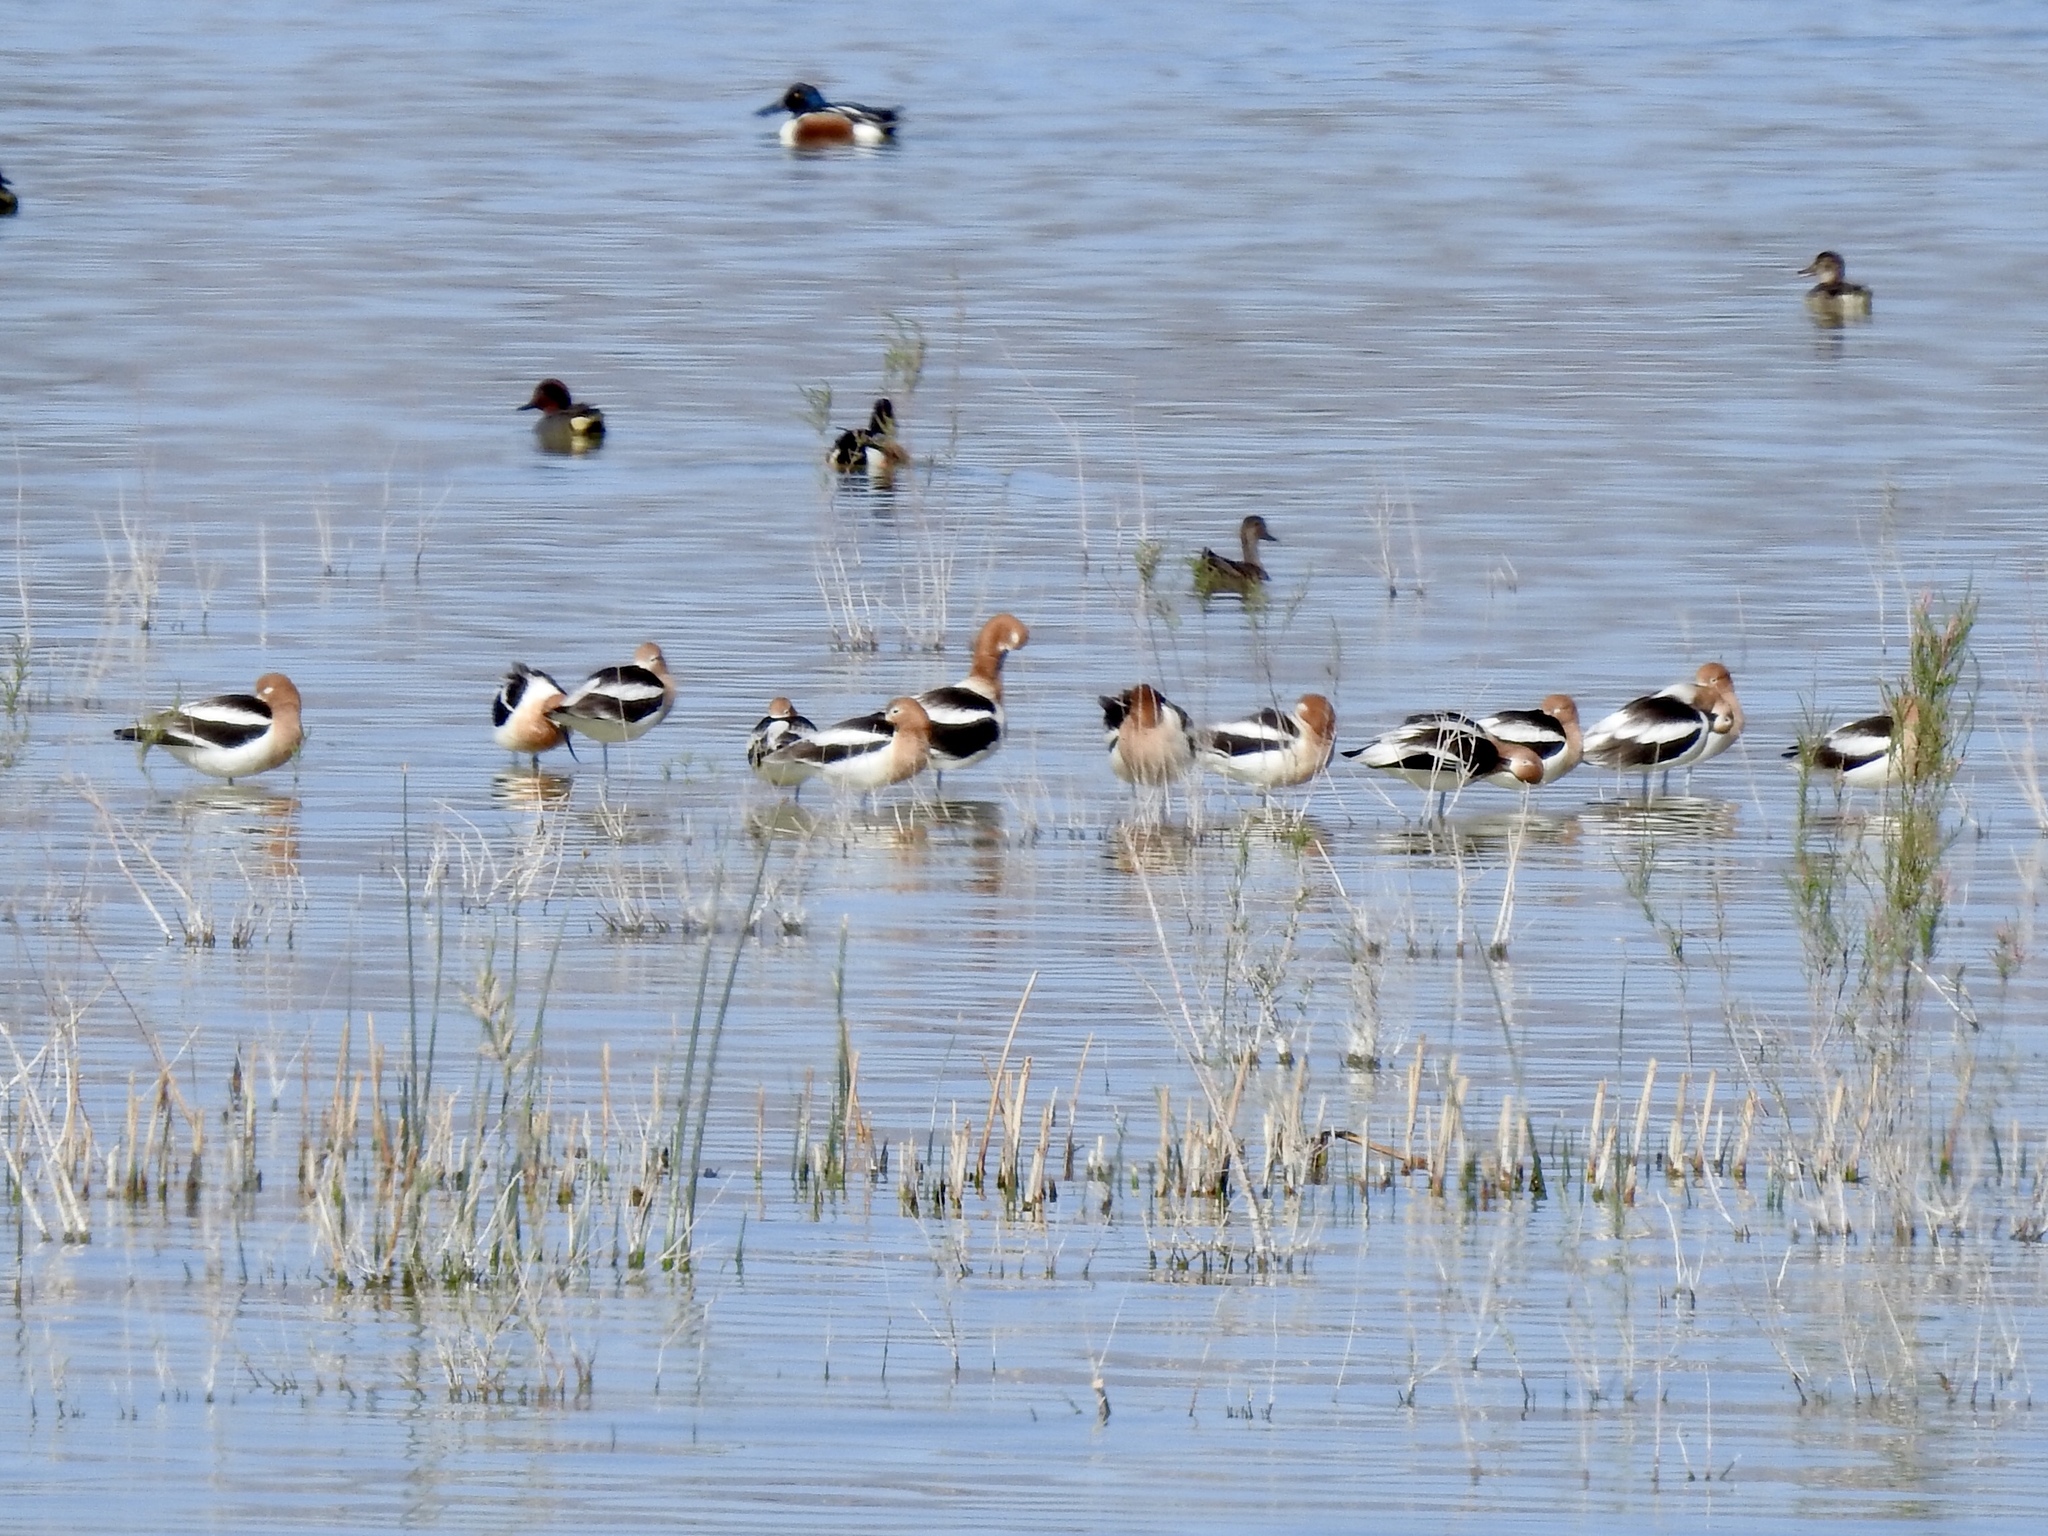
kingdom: Animalia
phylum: Chordata
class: Aves
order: Charadriiformes
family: Recurvirostridae
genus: Recurvirostra
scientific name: Recurvirostra americana
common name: American avocet
